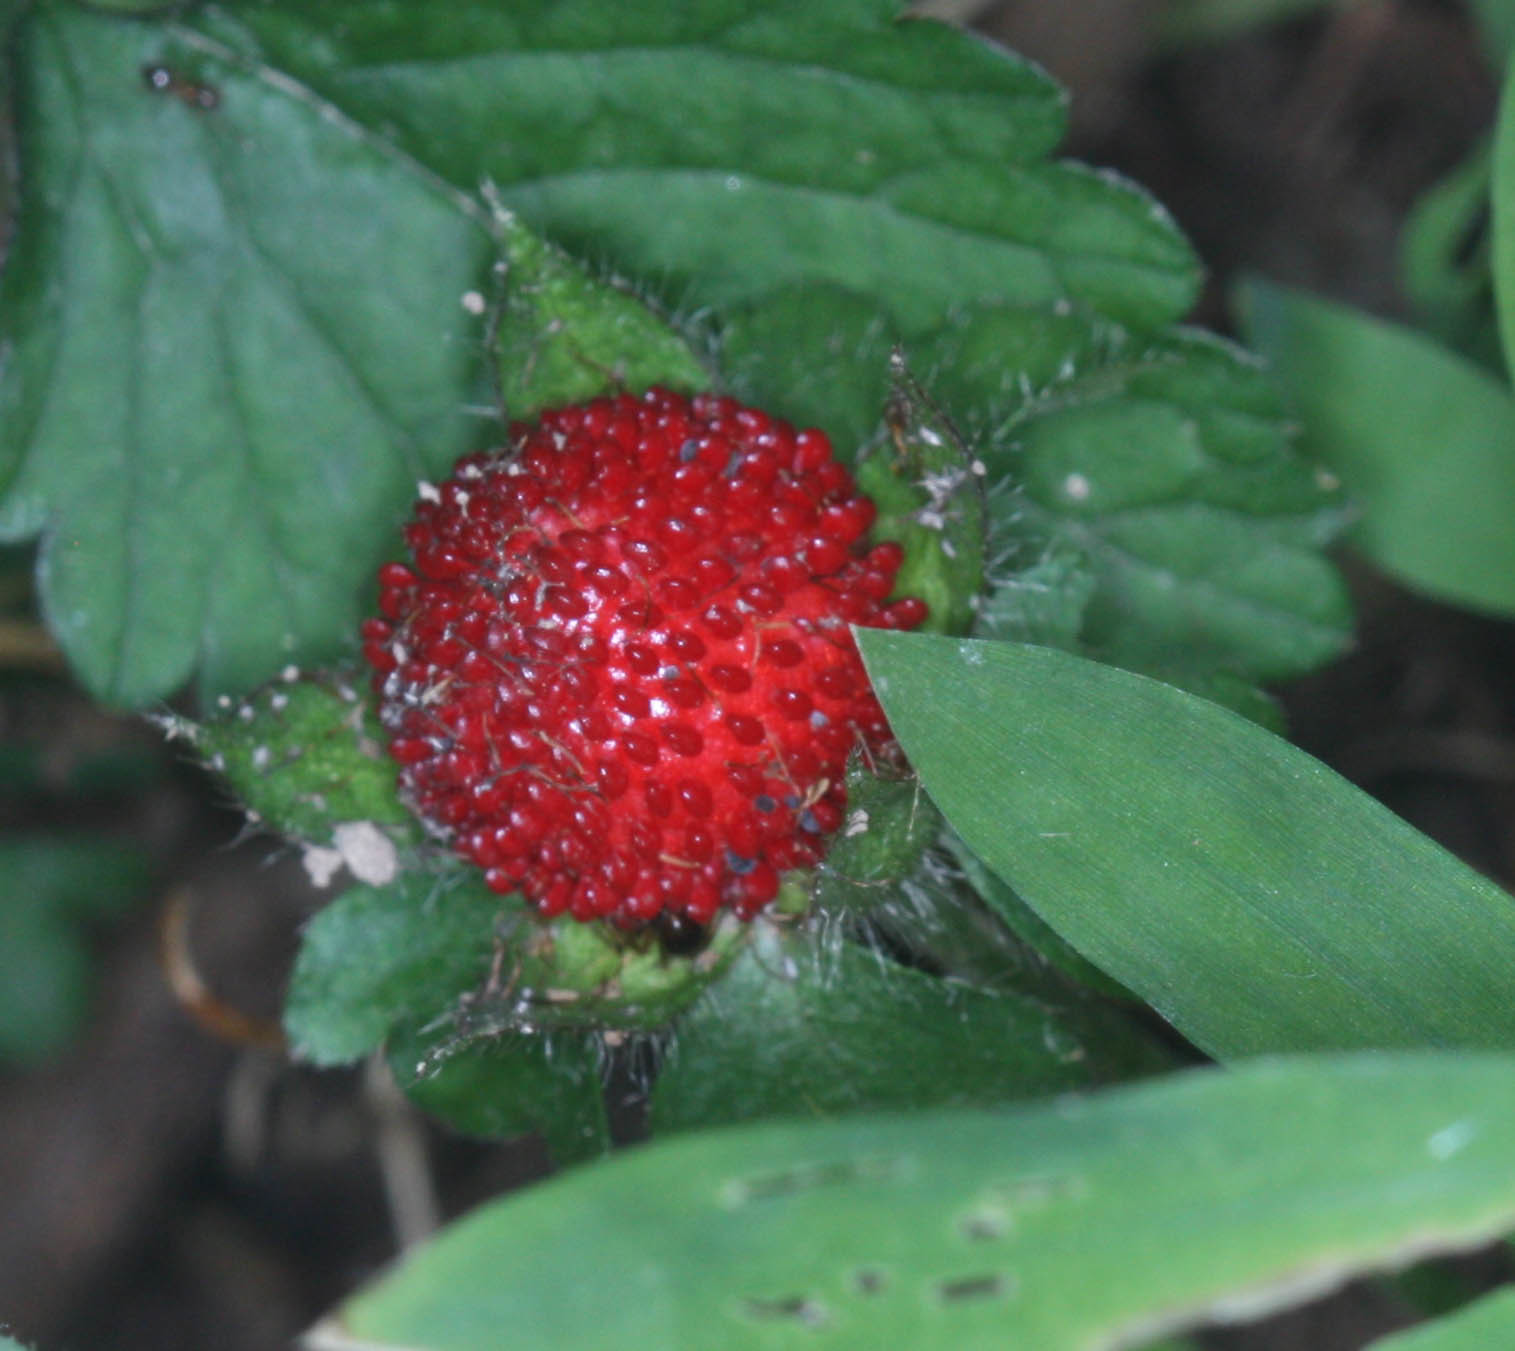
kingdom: Plantae
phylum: Tracheophyta
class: Magnoliopsida
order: Rosales
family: Rosaceae
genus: Potentilla
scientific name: Potentilla indica
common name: Yellow-flowered strawberry
